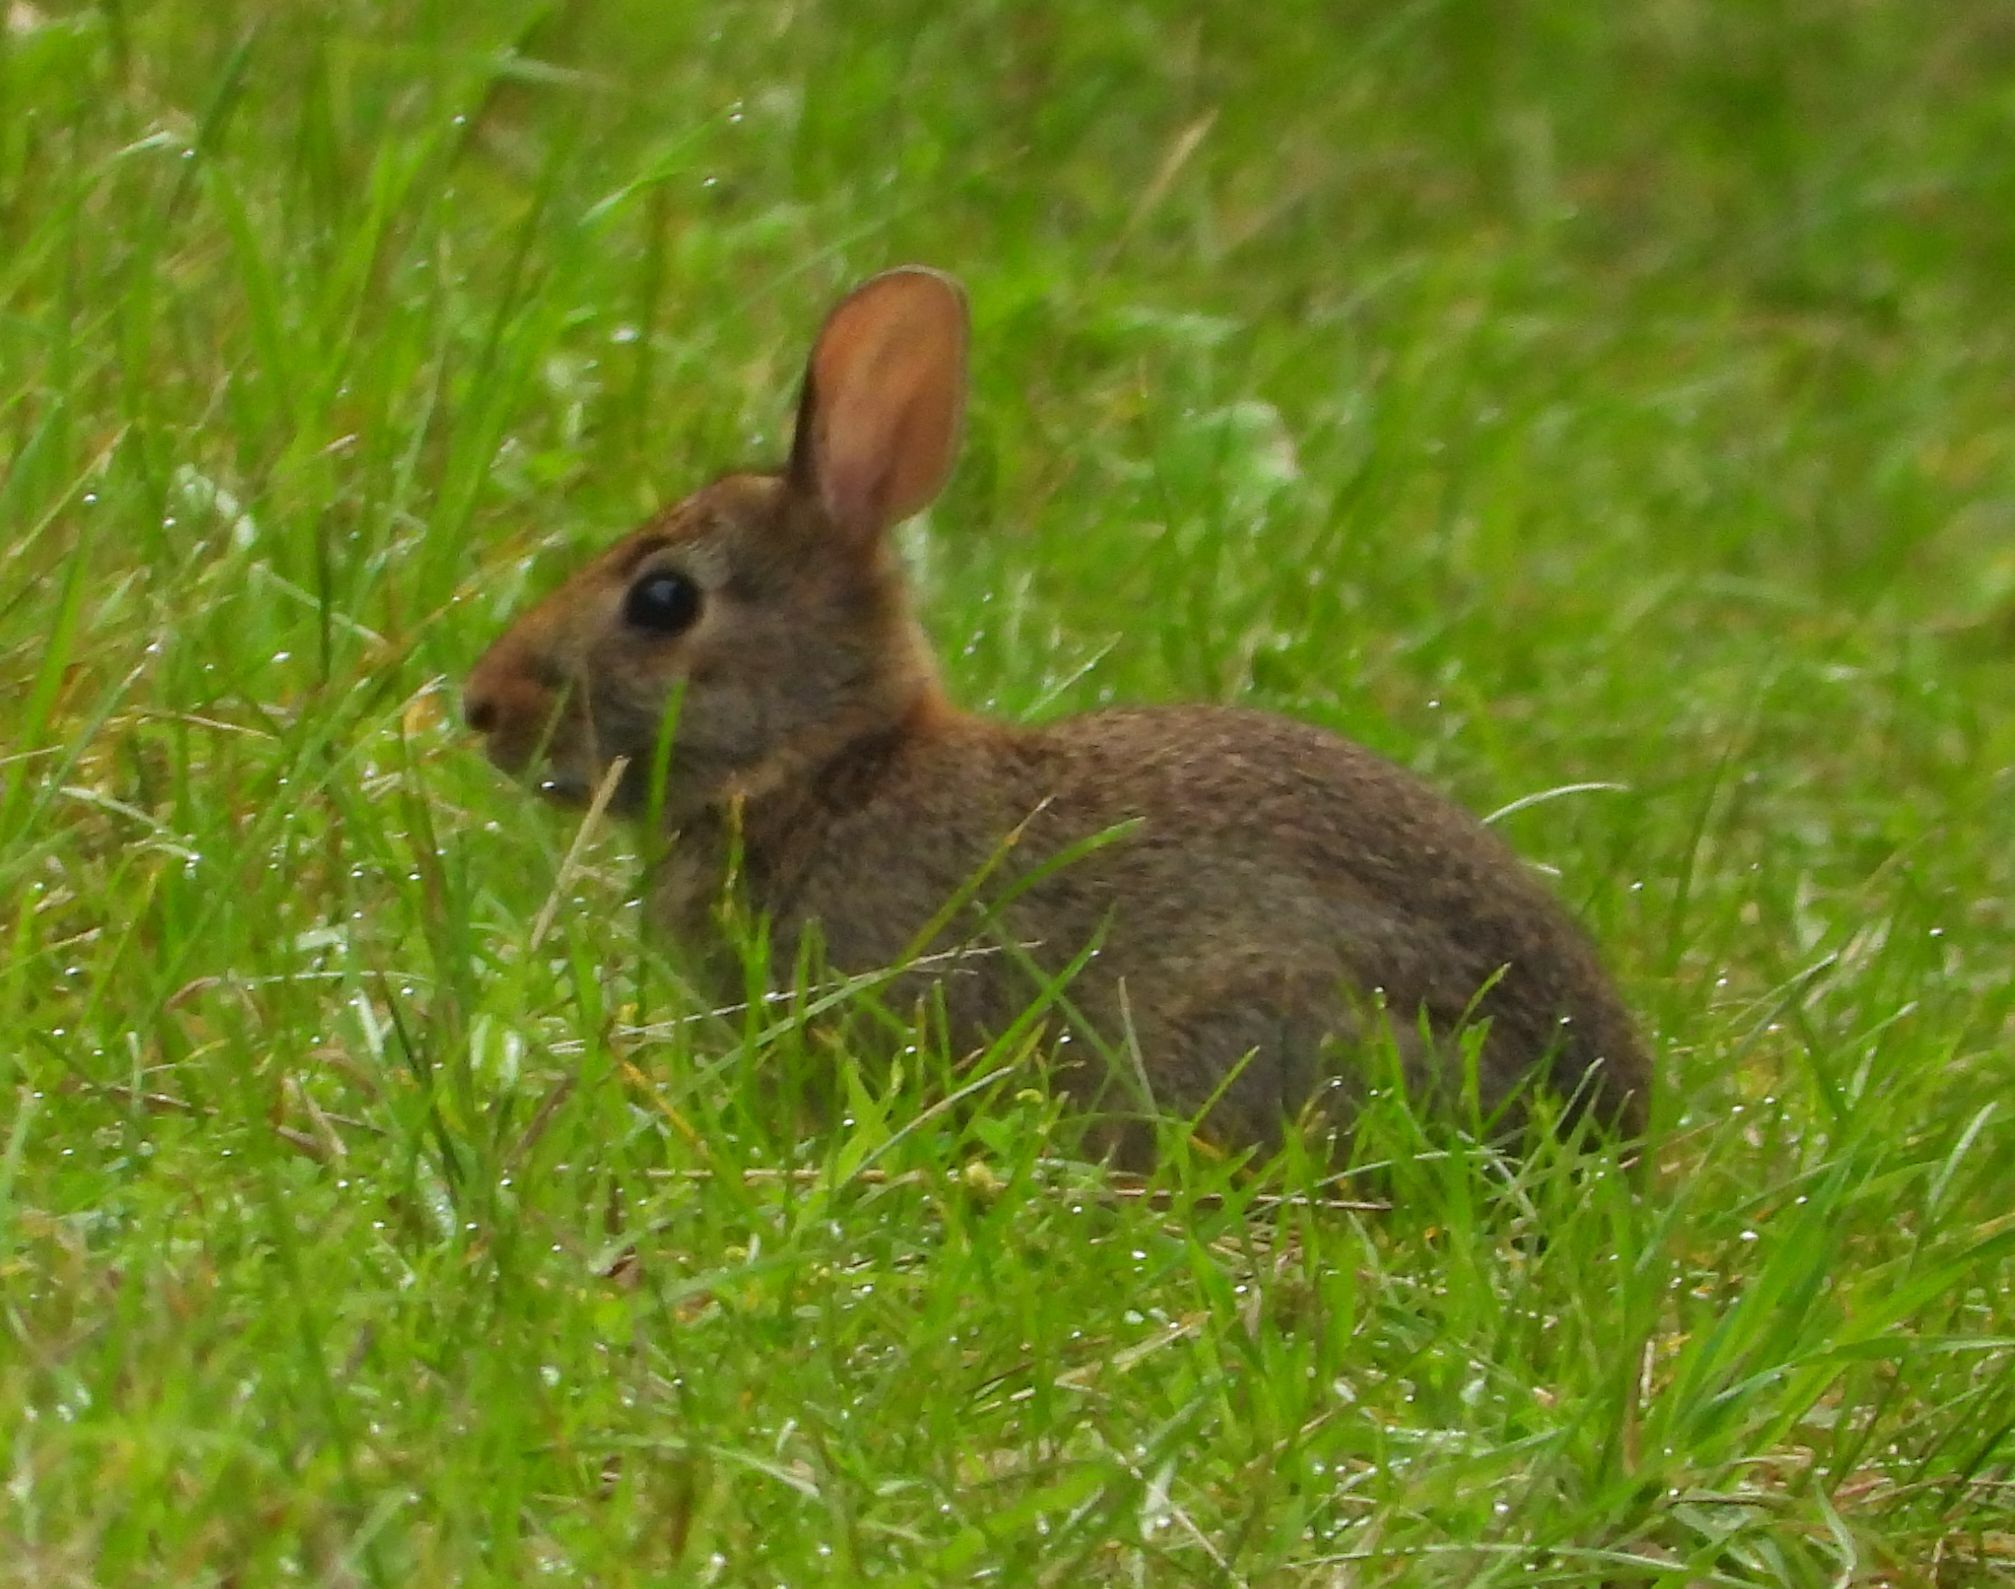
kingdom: Animalia
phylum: Chordata
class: Mammalia
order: Lagomorpha
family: Leporidae
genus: Sylvilagus
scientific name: Sylvilagus floridanus
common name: Eastern cottontail
